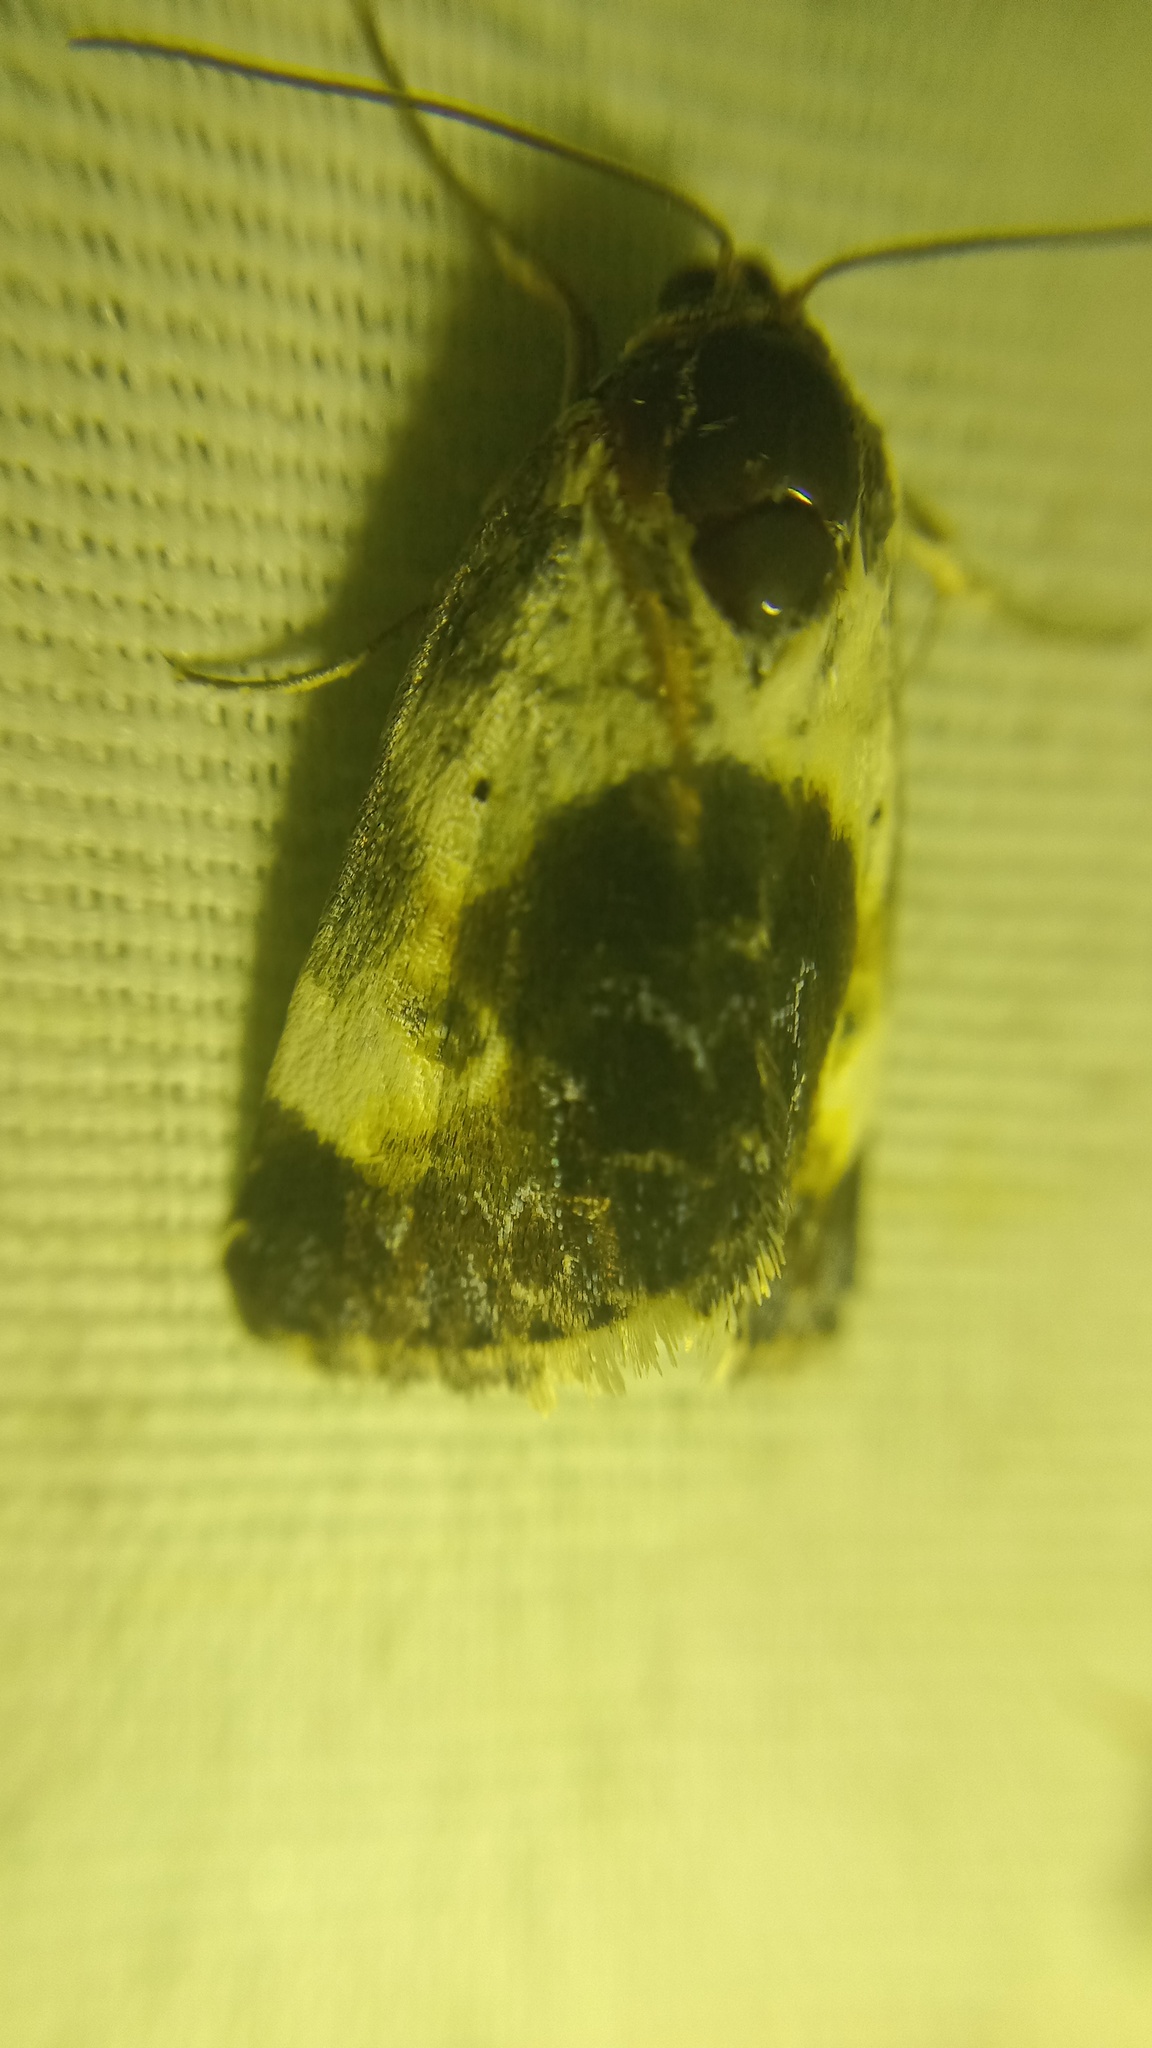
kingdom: Animalia
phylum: Arthropoda
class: Insecta
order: Lepidoptera
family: Noctuidae
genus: Acontia
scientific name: Acontia melanura
